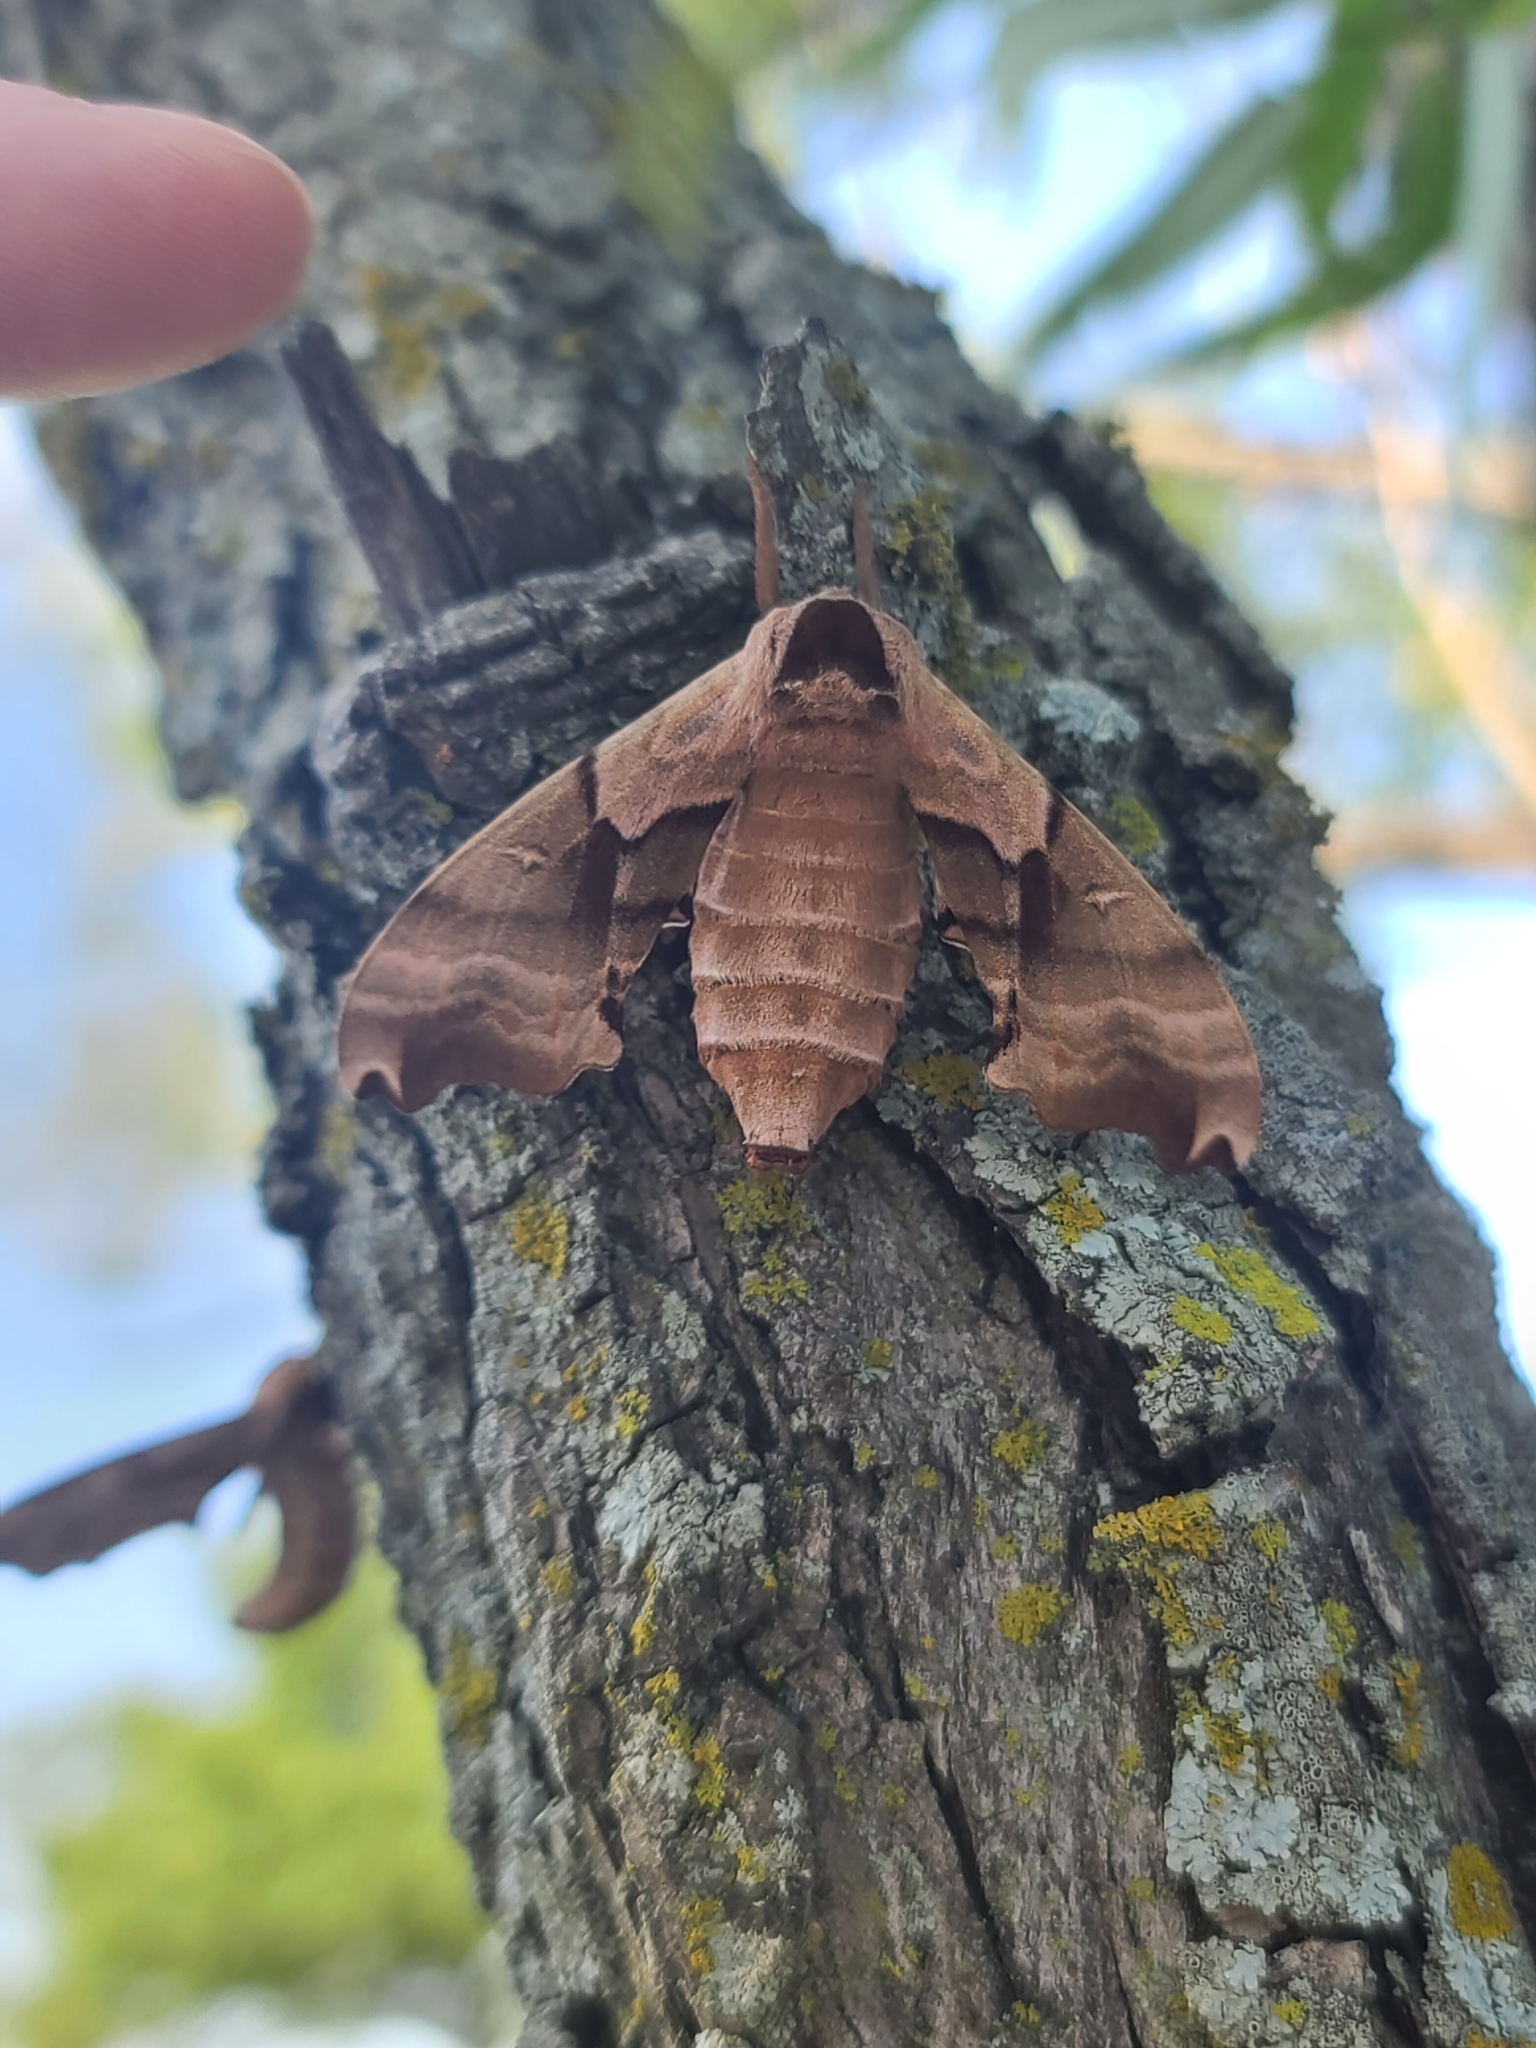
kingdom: Animalia
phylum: Arthropoda
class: Insecta
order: Lepidoptera
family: Sphingidae
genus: Smerinthus
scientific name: Smerinthus jamaicensis
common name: Twin spotted sphinx
